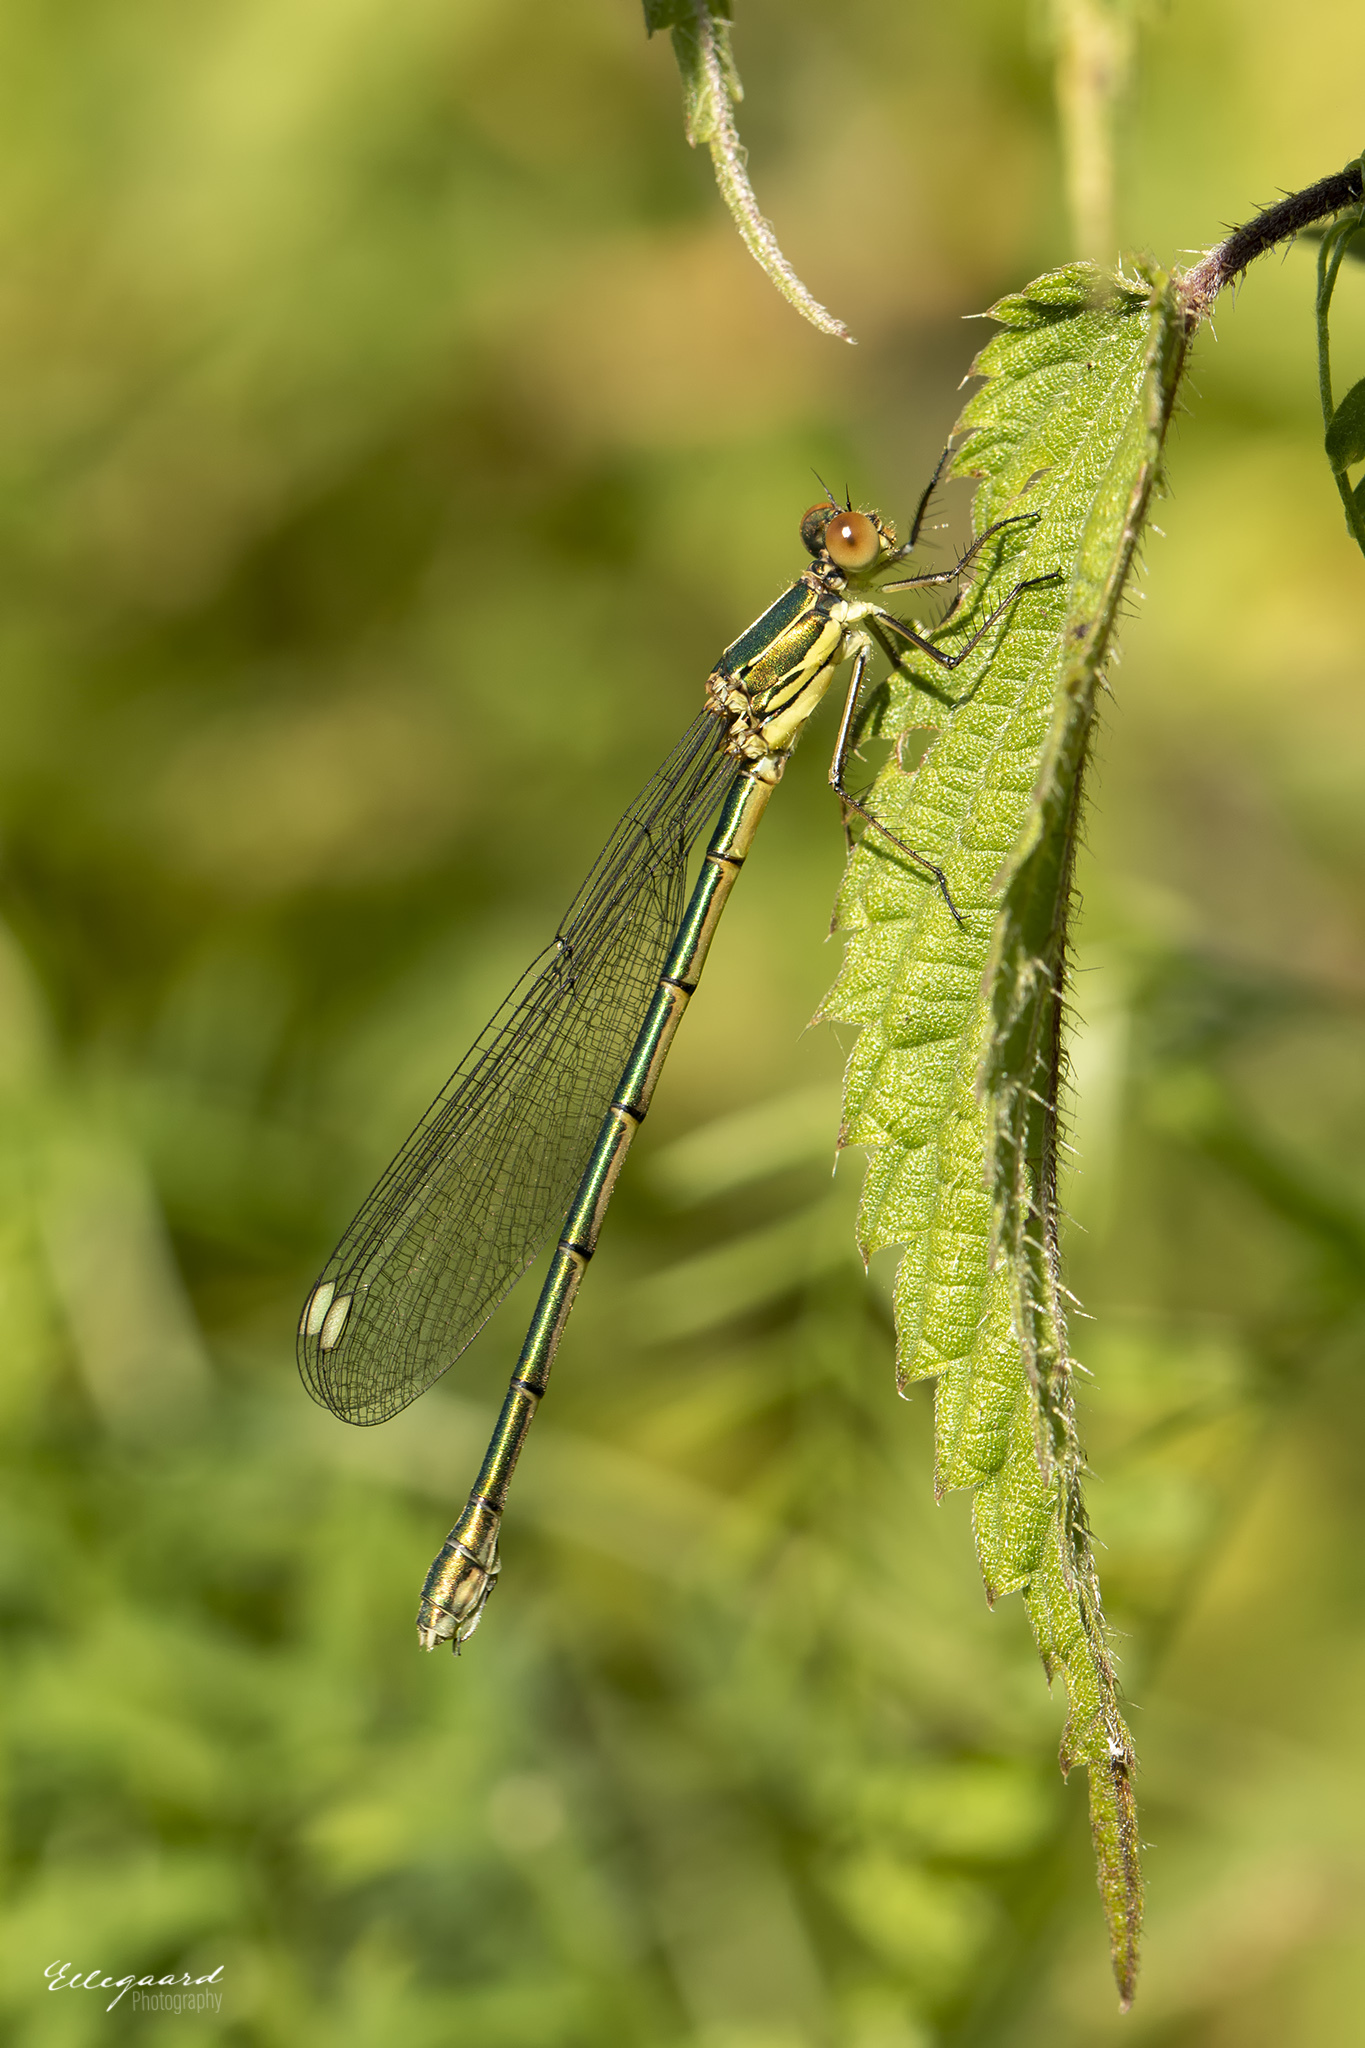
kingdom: Animalia
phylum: Arthropoda
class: Insecta
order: Odonata
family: Lestidae
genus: Chalcolestes
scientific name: Chalcolestes viridis
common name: Green emerald damselfly
